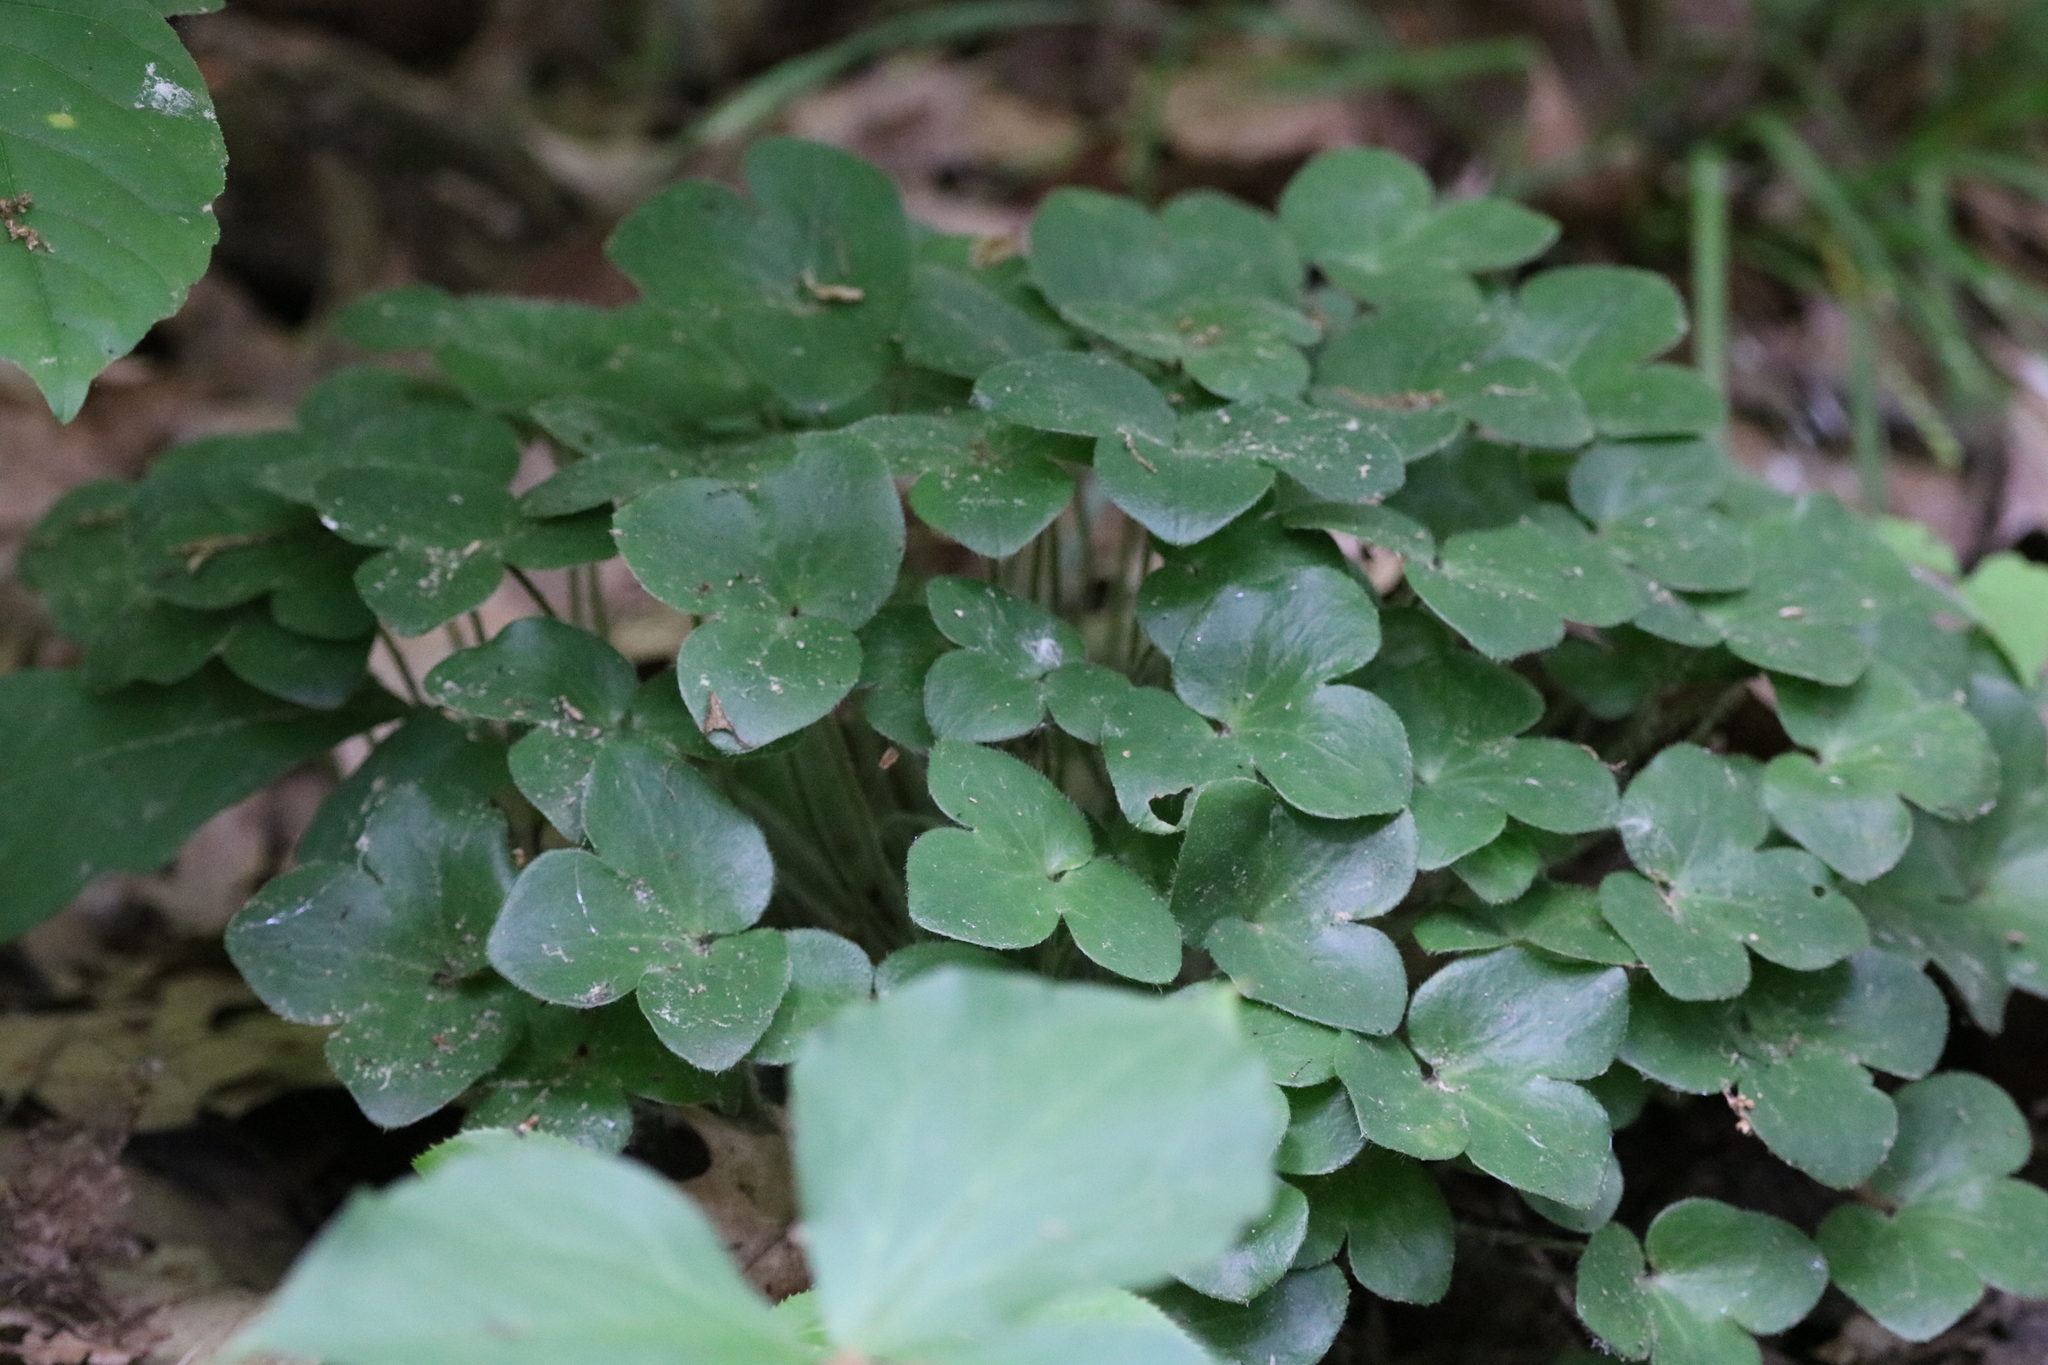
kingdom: Plantae
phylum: Tracheophyta
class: Magnoliopsida
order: Ranunculales
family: Ranunculaceae
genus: Hepatica
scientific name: Hepatica americana
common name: American hepatica
